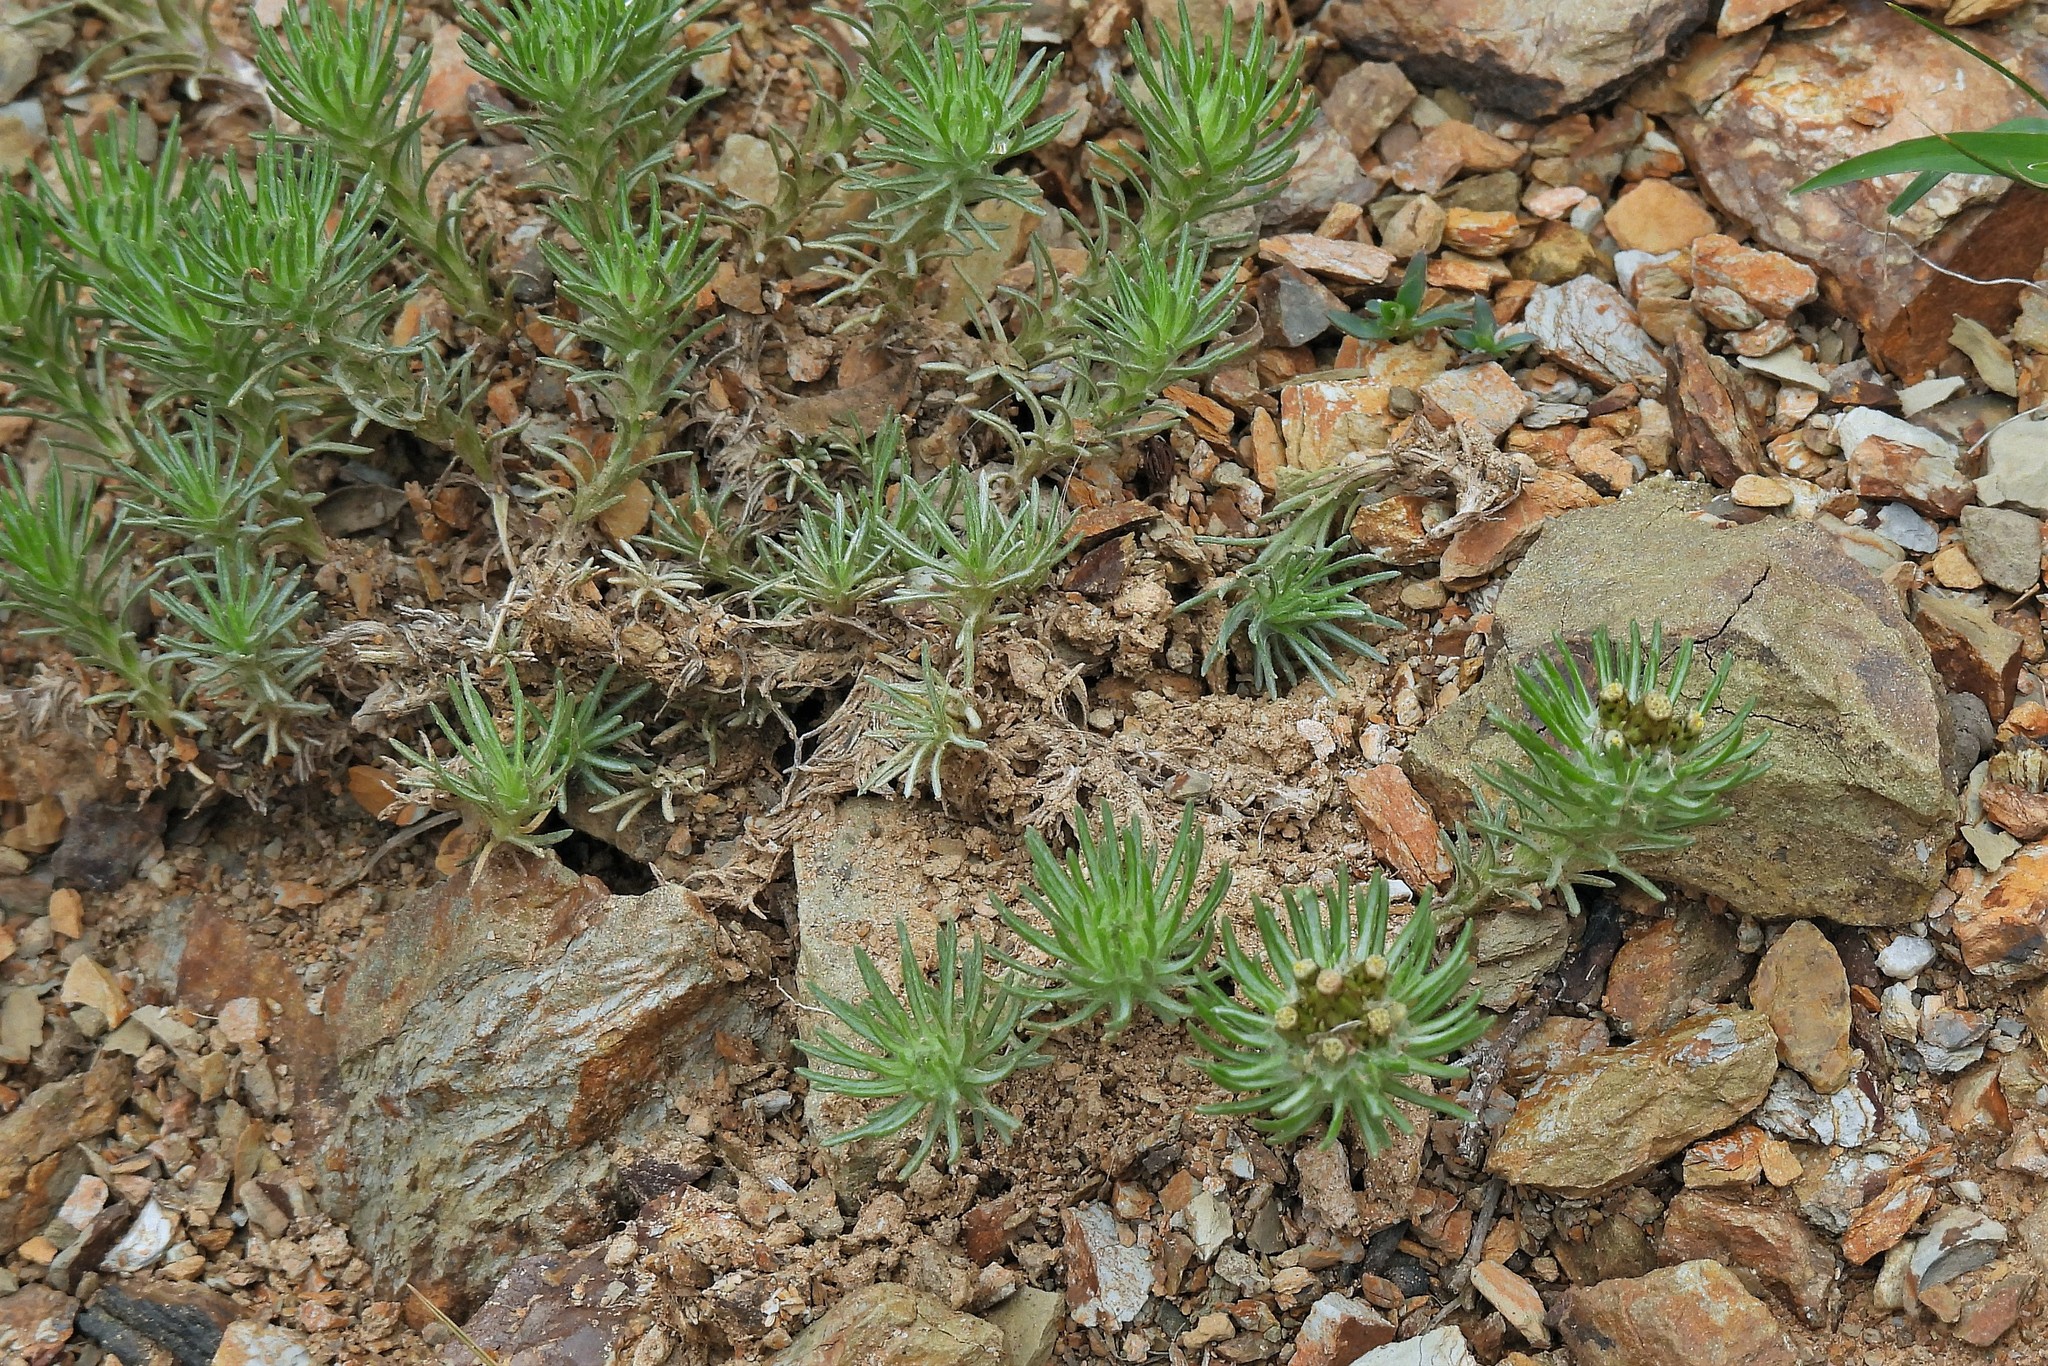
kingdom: Plantae
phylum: Tracheophyta
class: Magnoliopsida
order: Asterales
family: Asteraceae
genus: Gamochaeta
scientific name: Gamochaeta capitata
